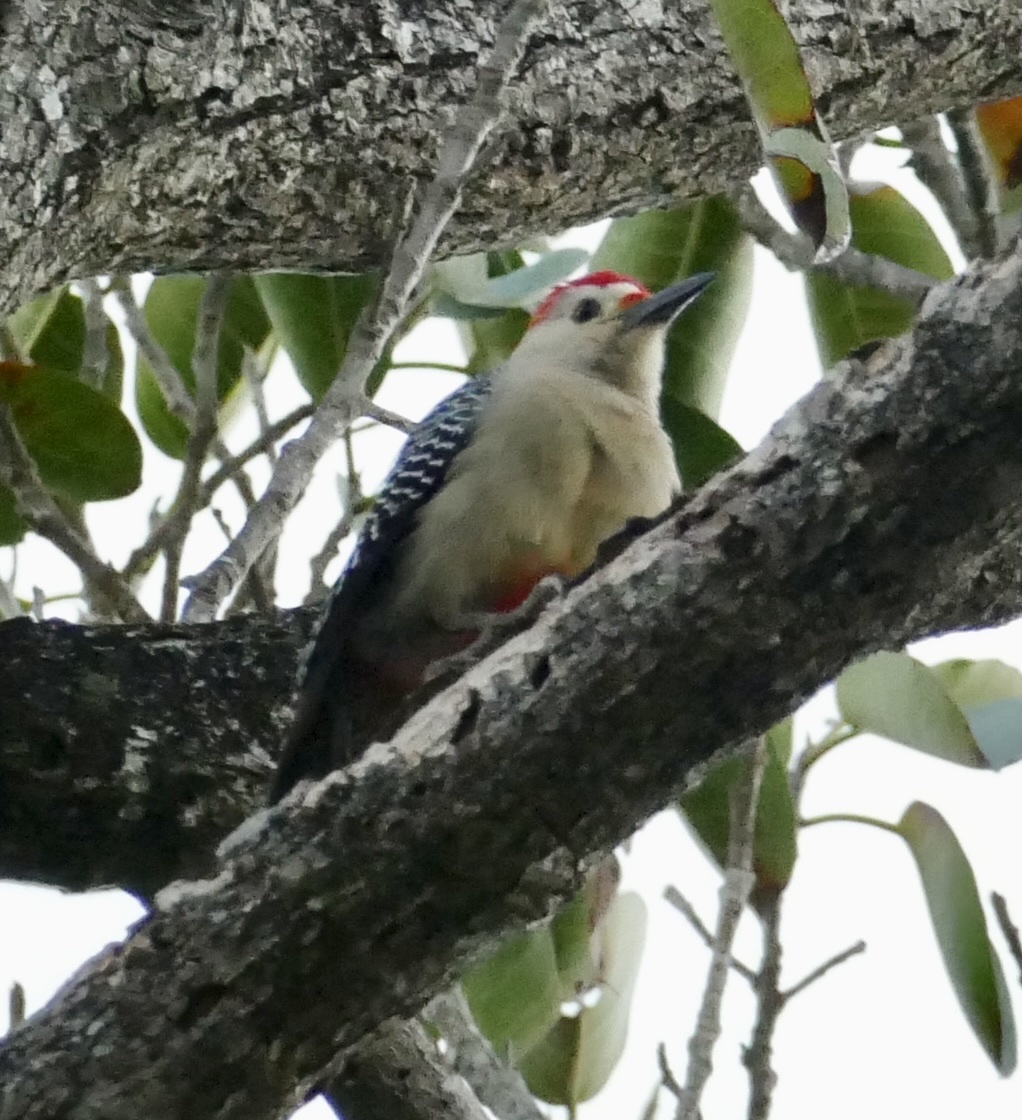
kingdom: Animalia
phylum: Chordata
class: Aves
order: Piciformes
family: Picidae
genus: Melanerpes
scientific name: Melanerpes santacruzi
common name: Velasquez's woodpecker
